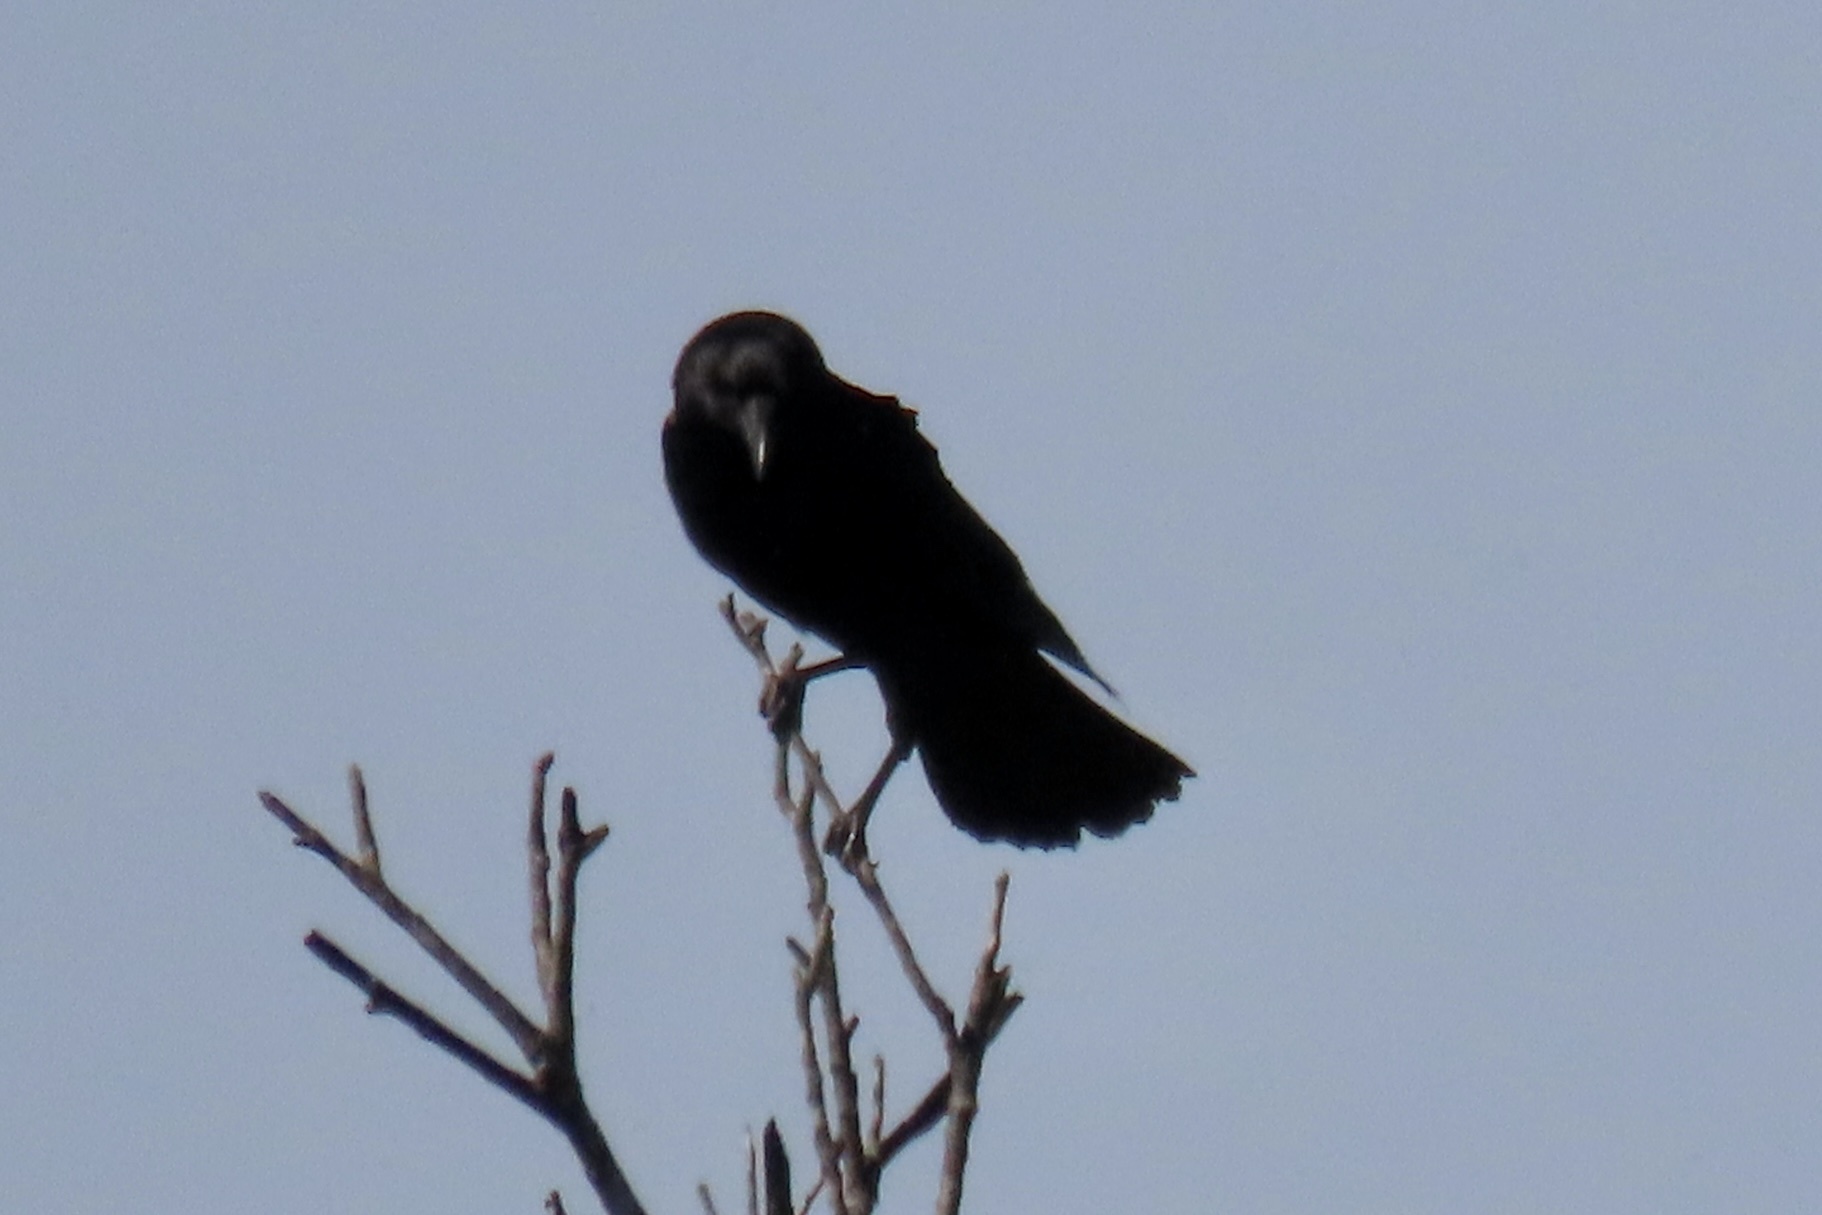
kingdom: Animalia
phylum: Chordata
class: Aves
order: Passeriformes
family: Corvidae
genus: Corvus
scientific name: Corvus brachyrhynchos
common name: American crow
